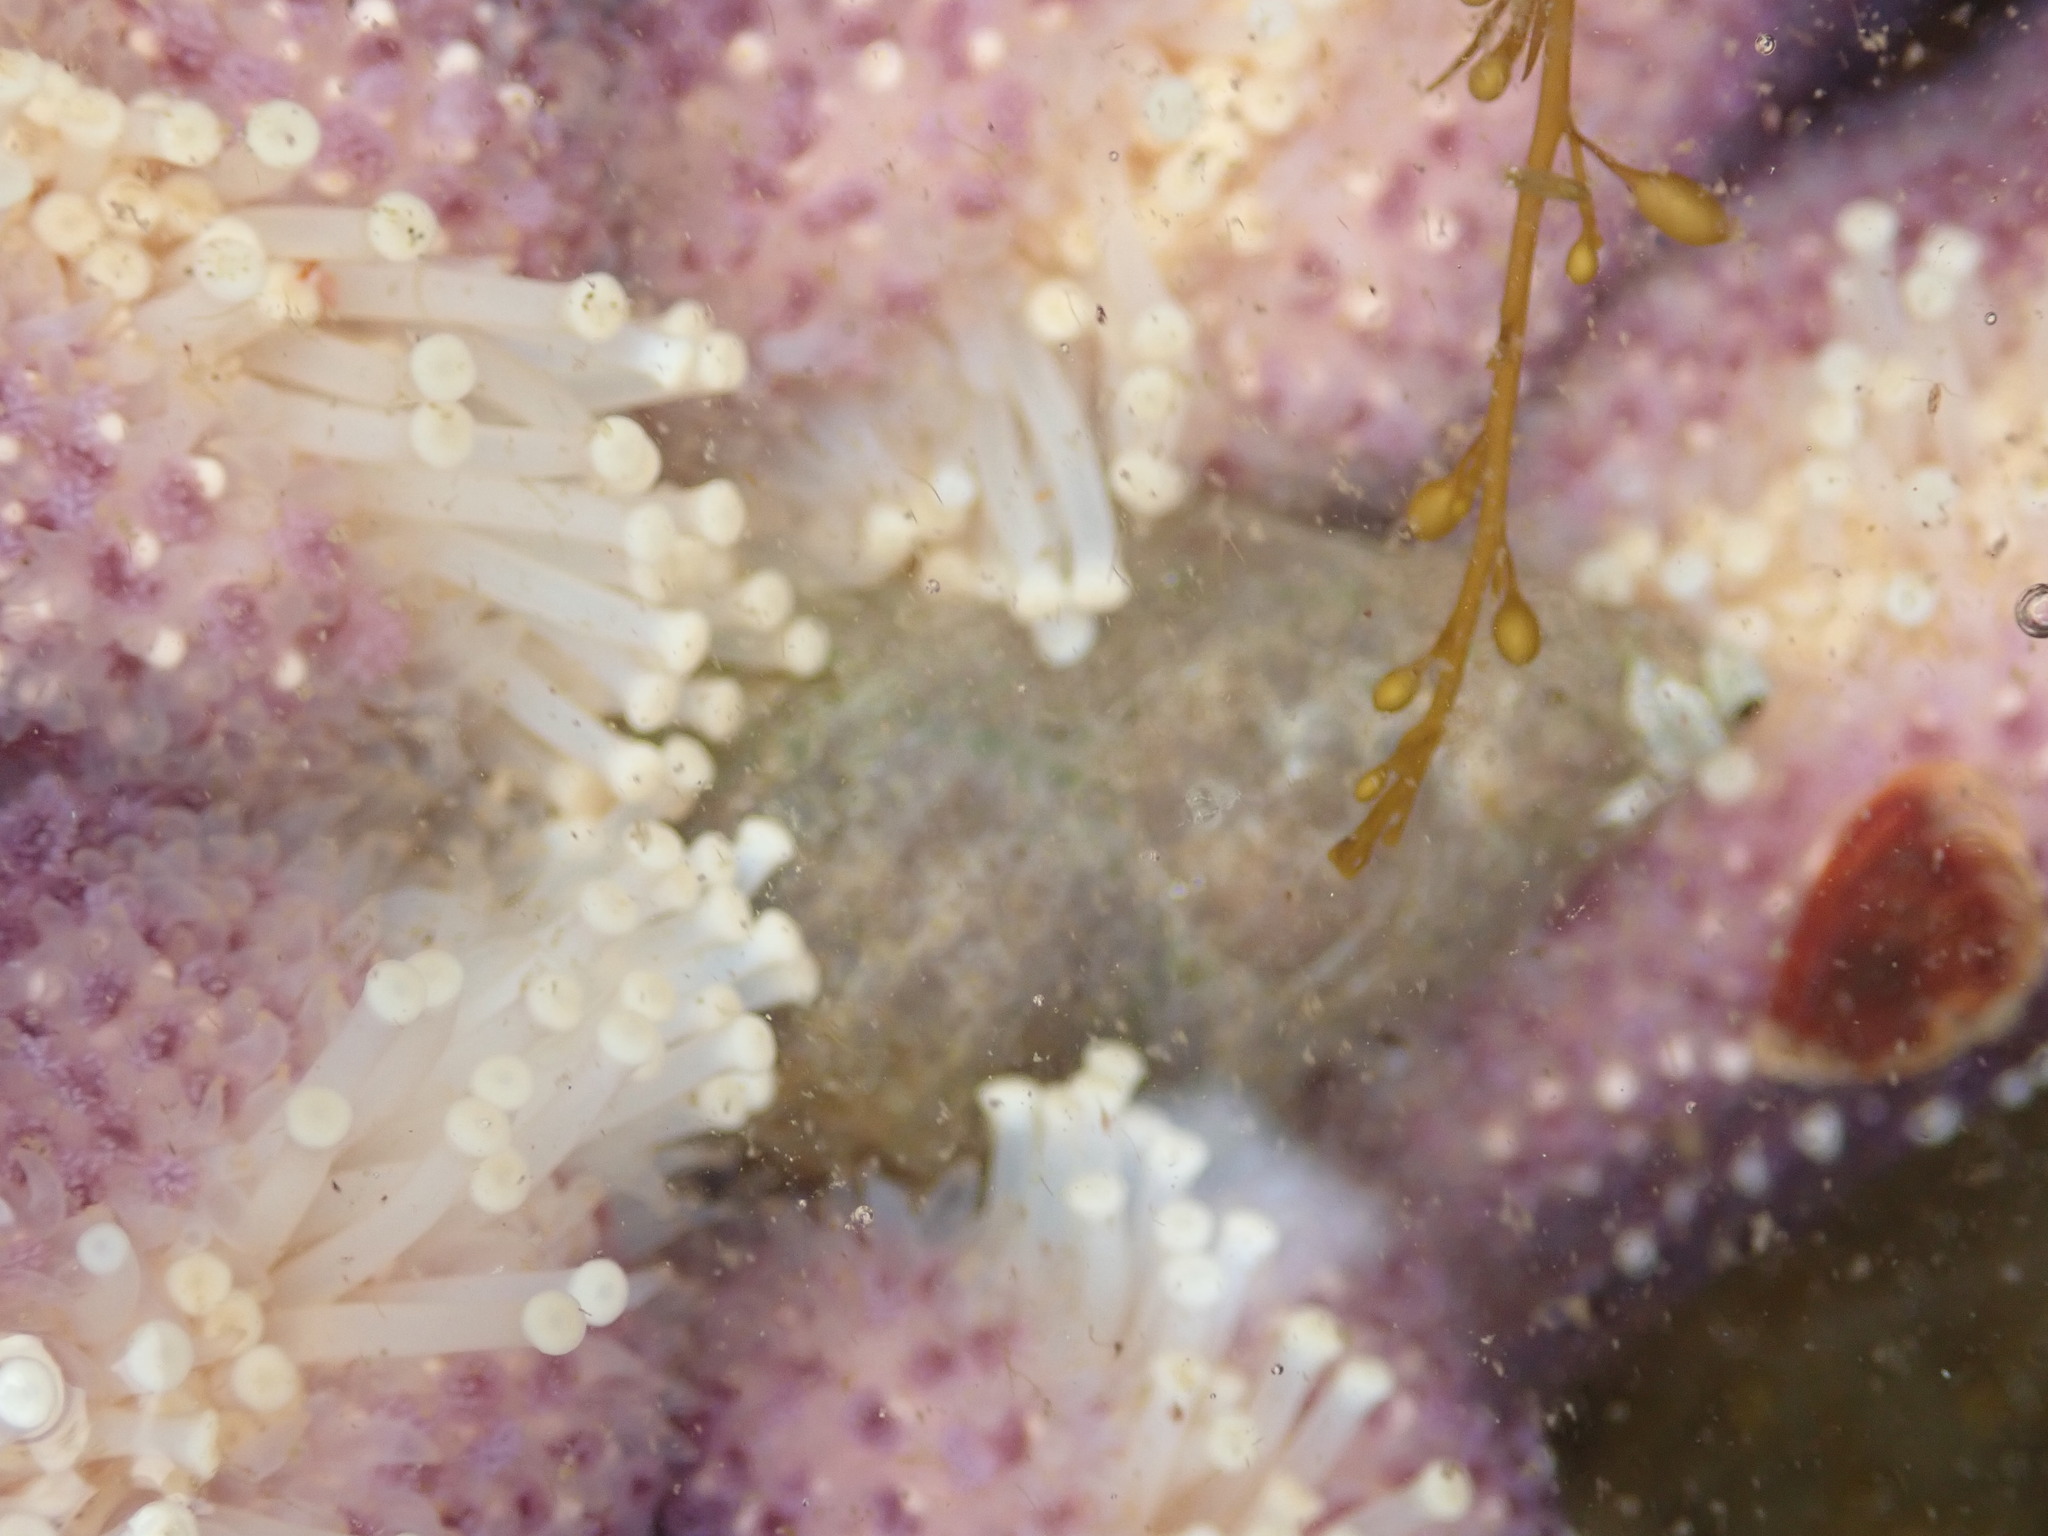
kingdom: Animalia
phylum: Mollusca
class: Gastropoda
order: Neogastropoda
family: Muricidae
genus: Nucella
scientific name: Nucella lamellosa
